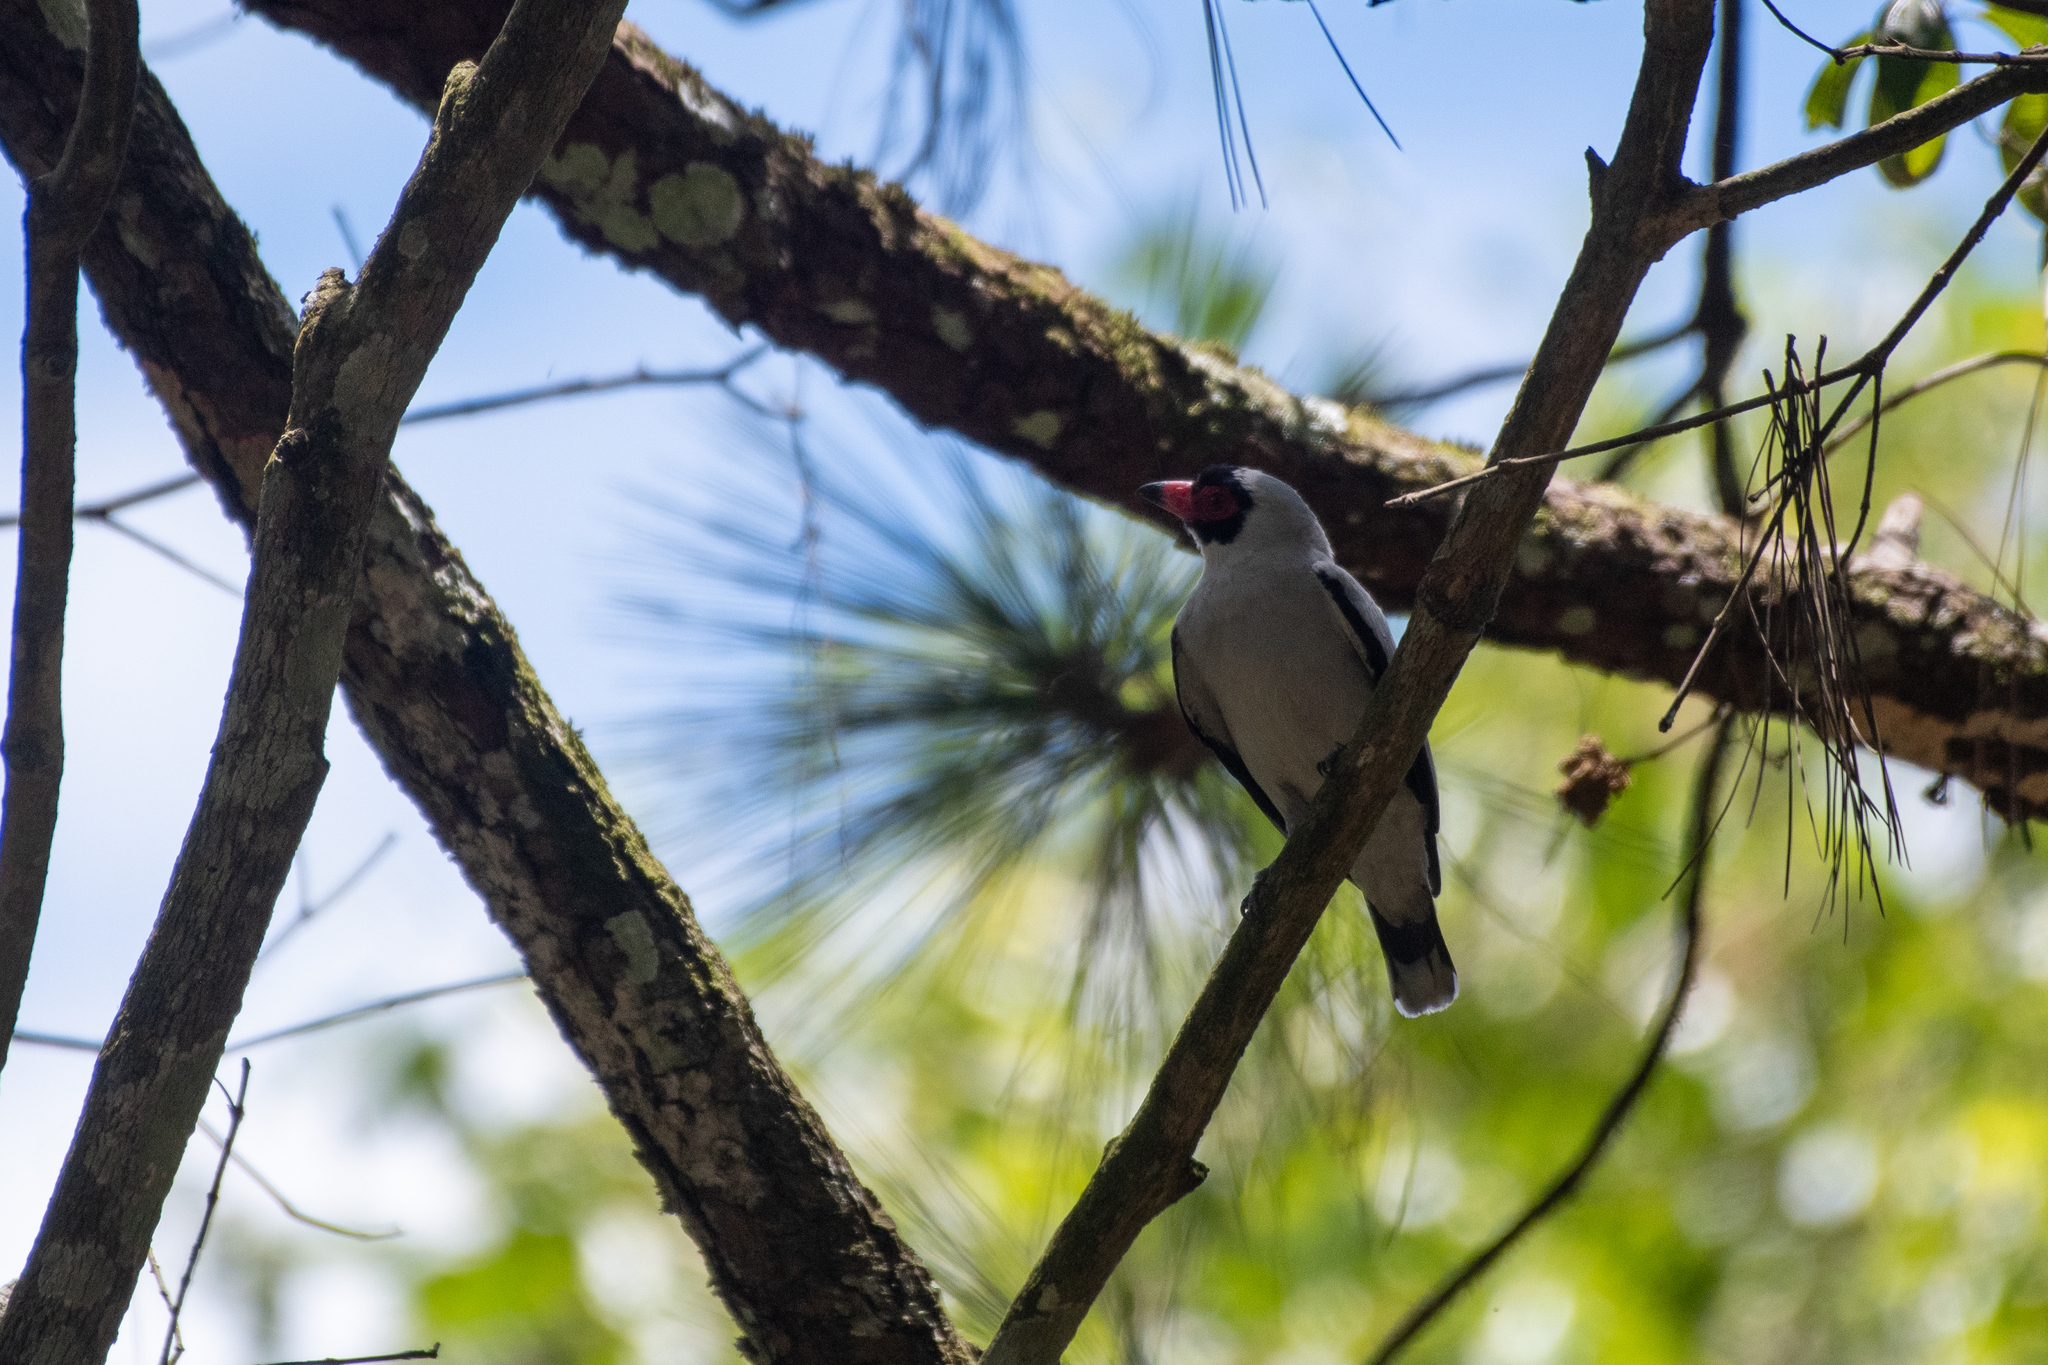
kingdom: Animalia
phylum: Chordata
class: Aves
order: Passeriformes
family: Cotingidae
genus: Tityra
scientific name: Tityra semifasciata
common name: Masked tityra
